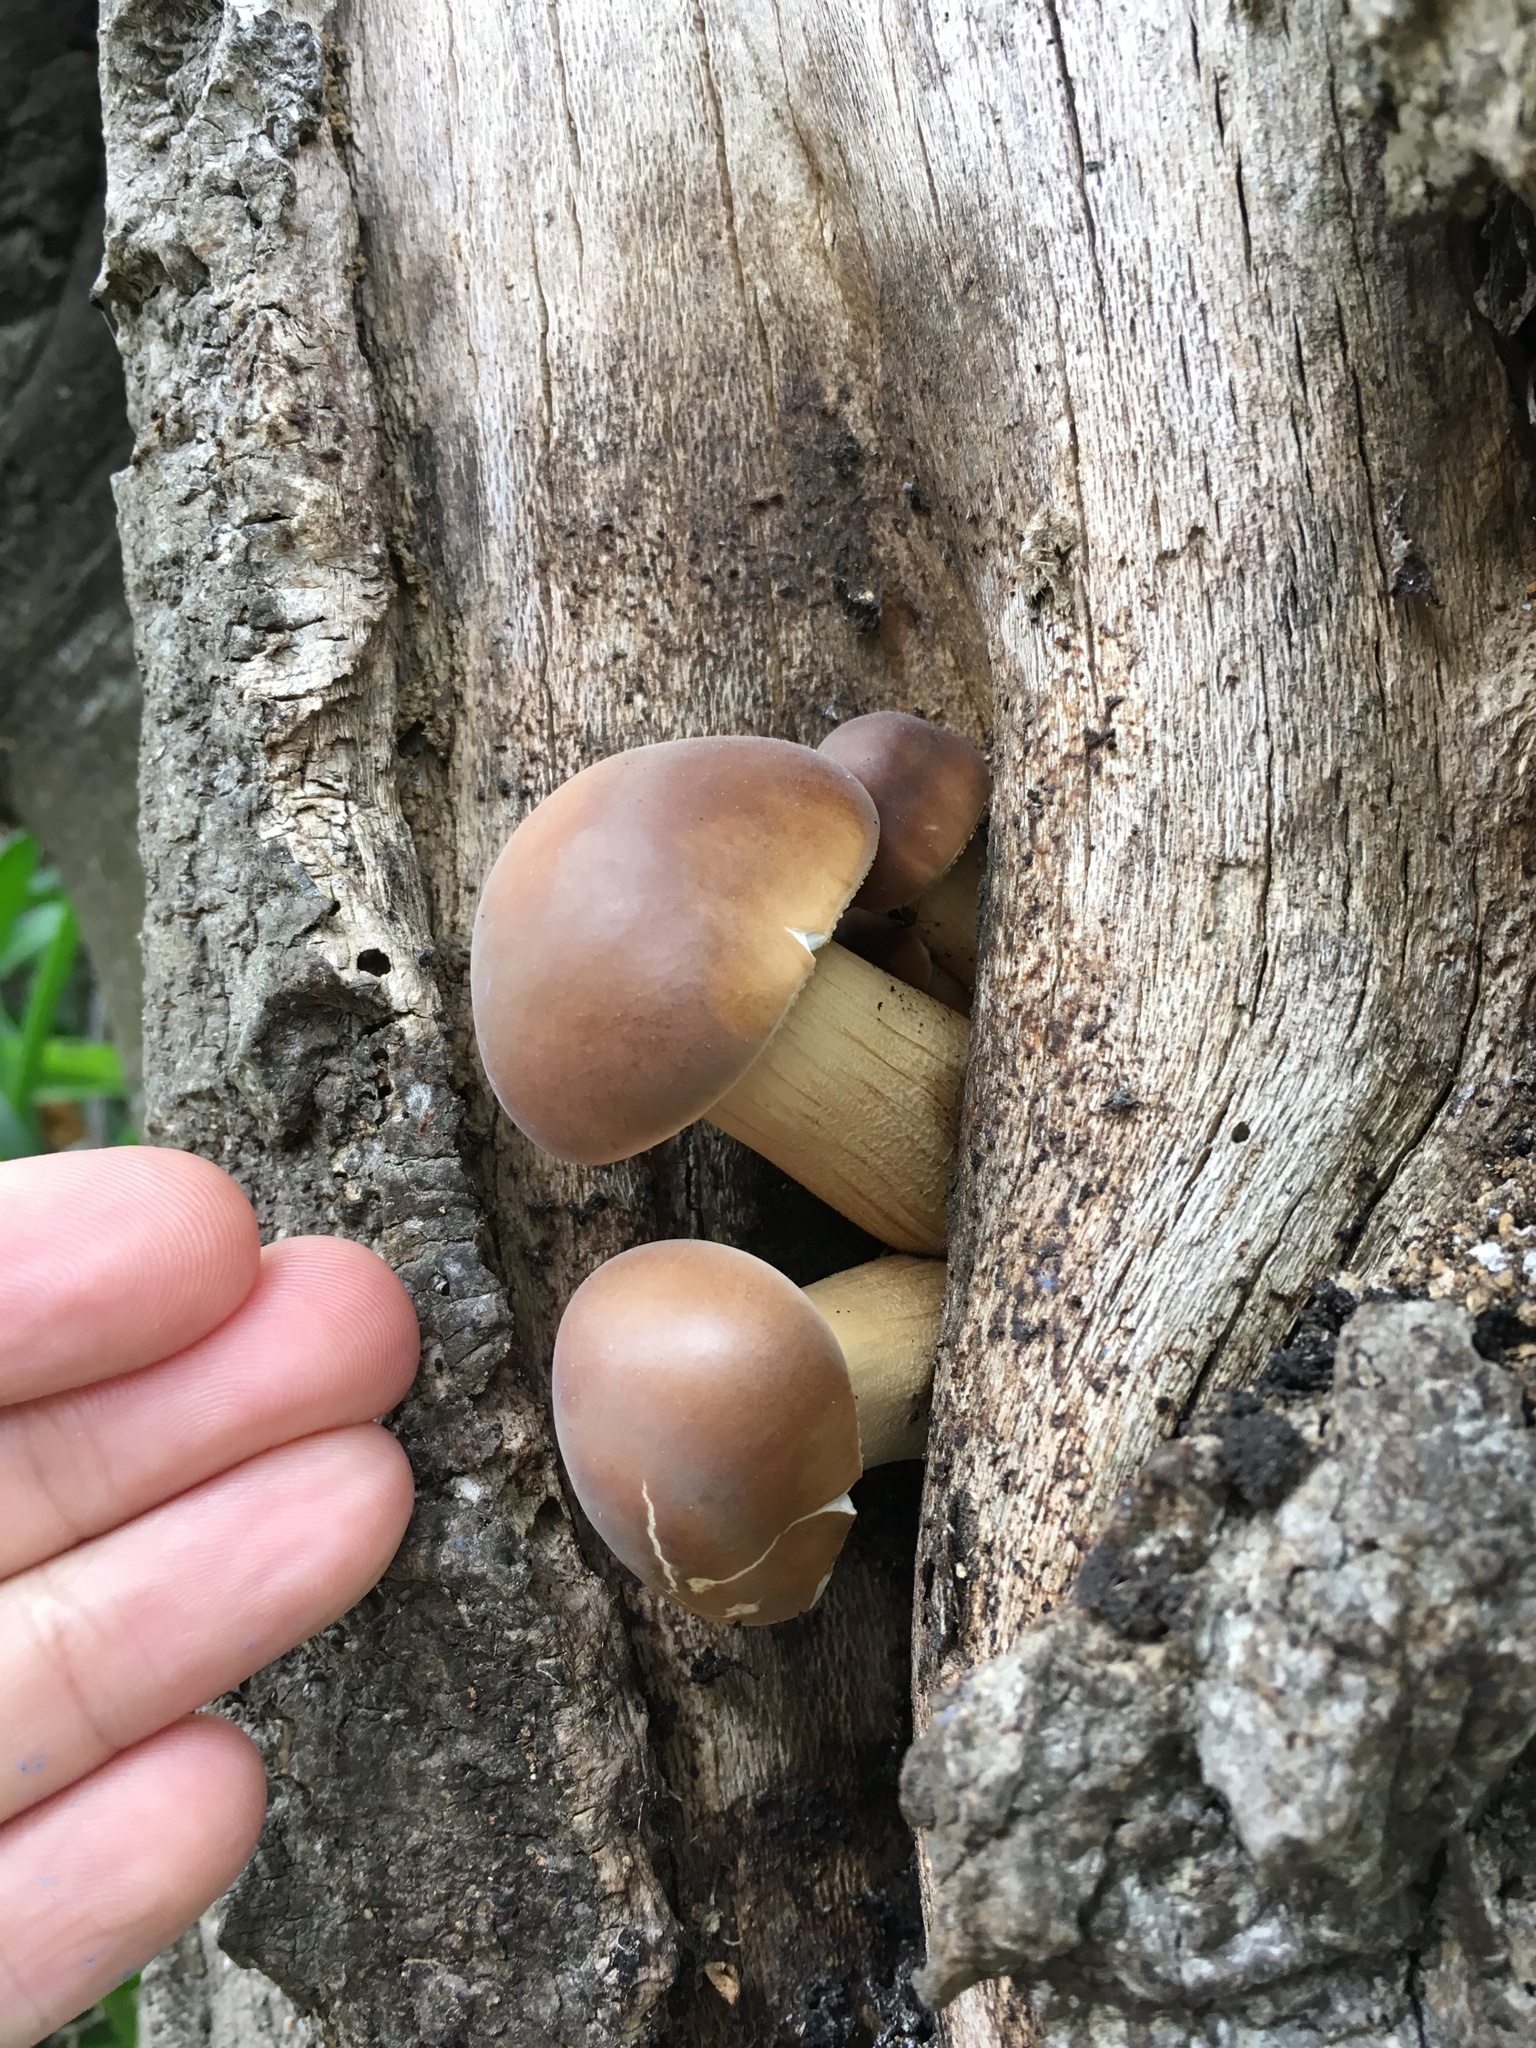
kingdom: Fungi
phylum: Basidiomycota
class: Agaricomycetes
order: Agaricales
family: Tubariaceae
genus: Cyclocybe
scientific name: Cyclocybe parasitica
